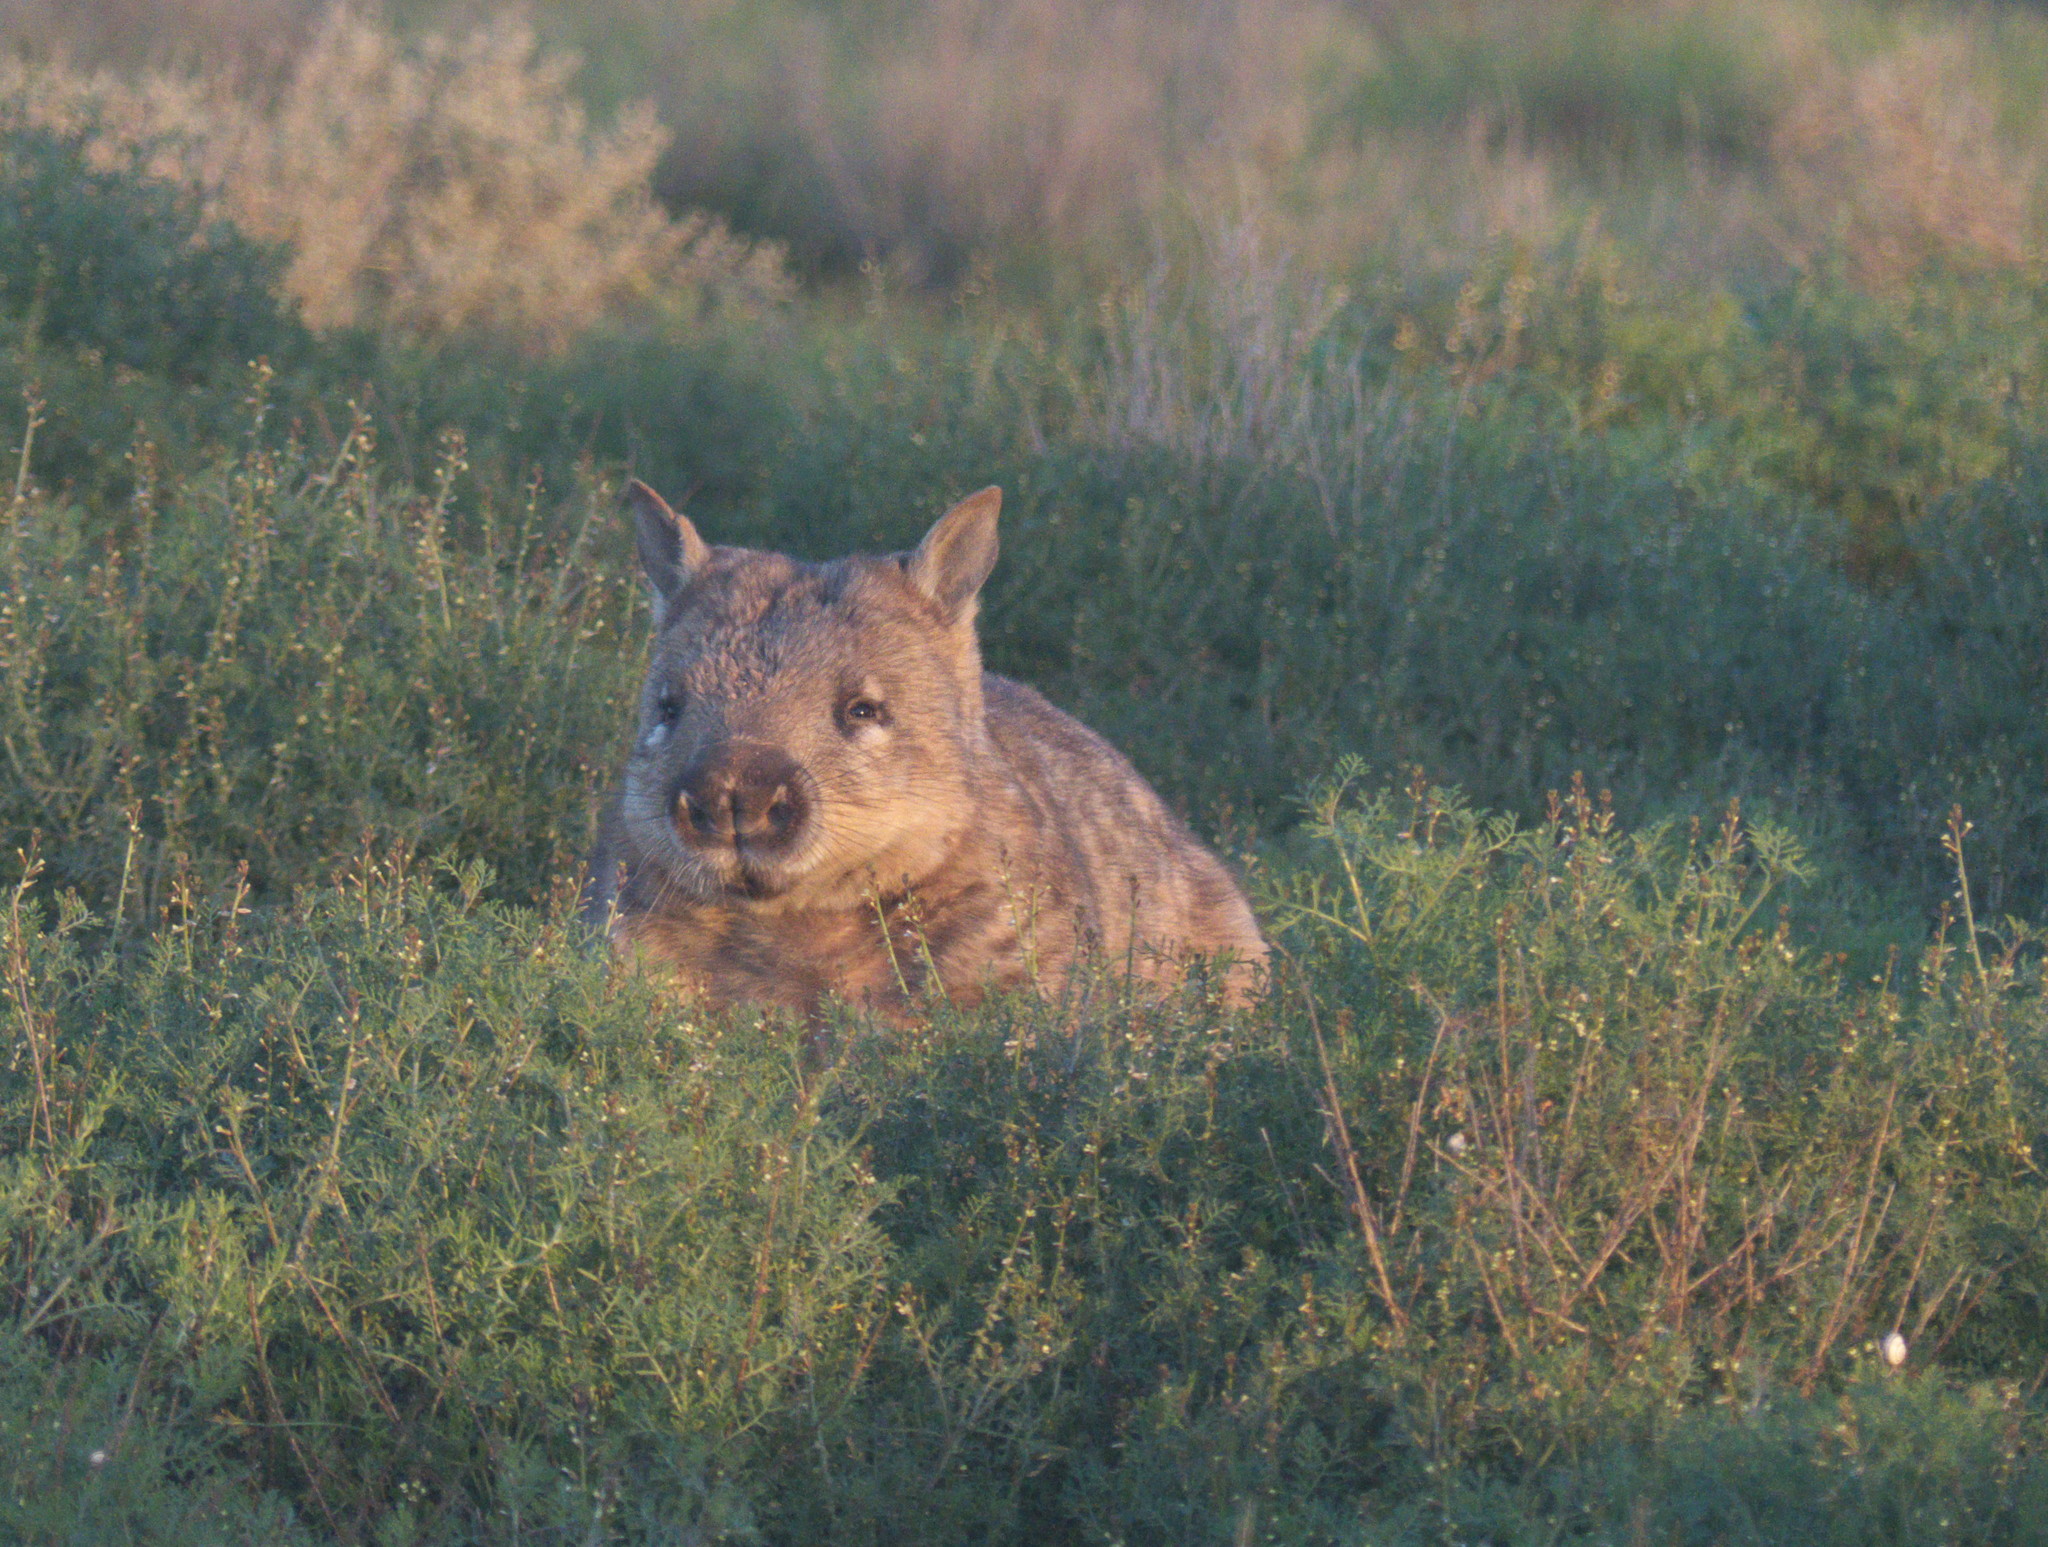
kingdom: Animalia
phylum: Chordata
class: Mammalia
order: Diprotodontia
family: Vombatidae
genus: Lasiorhinus
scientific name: Lasiorhinus latifrons
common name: Southern hairy-nosed wombat
